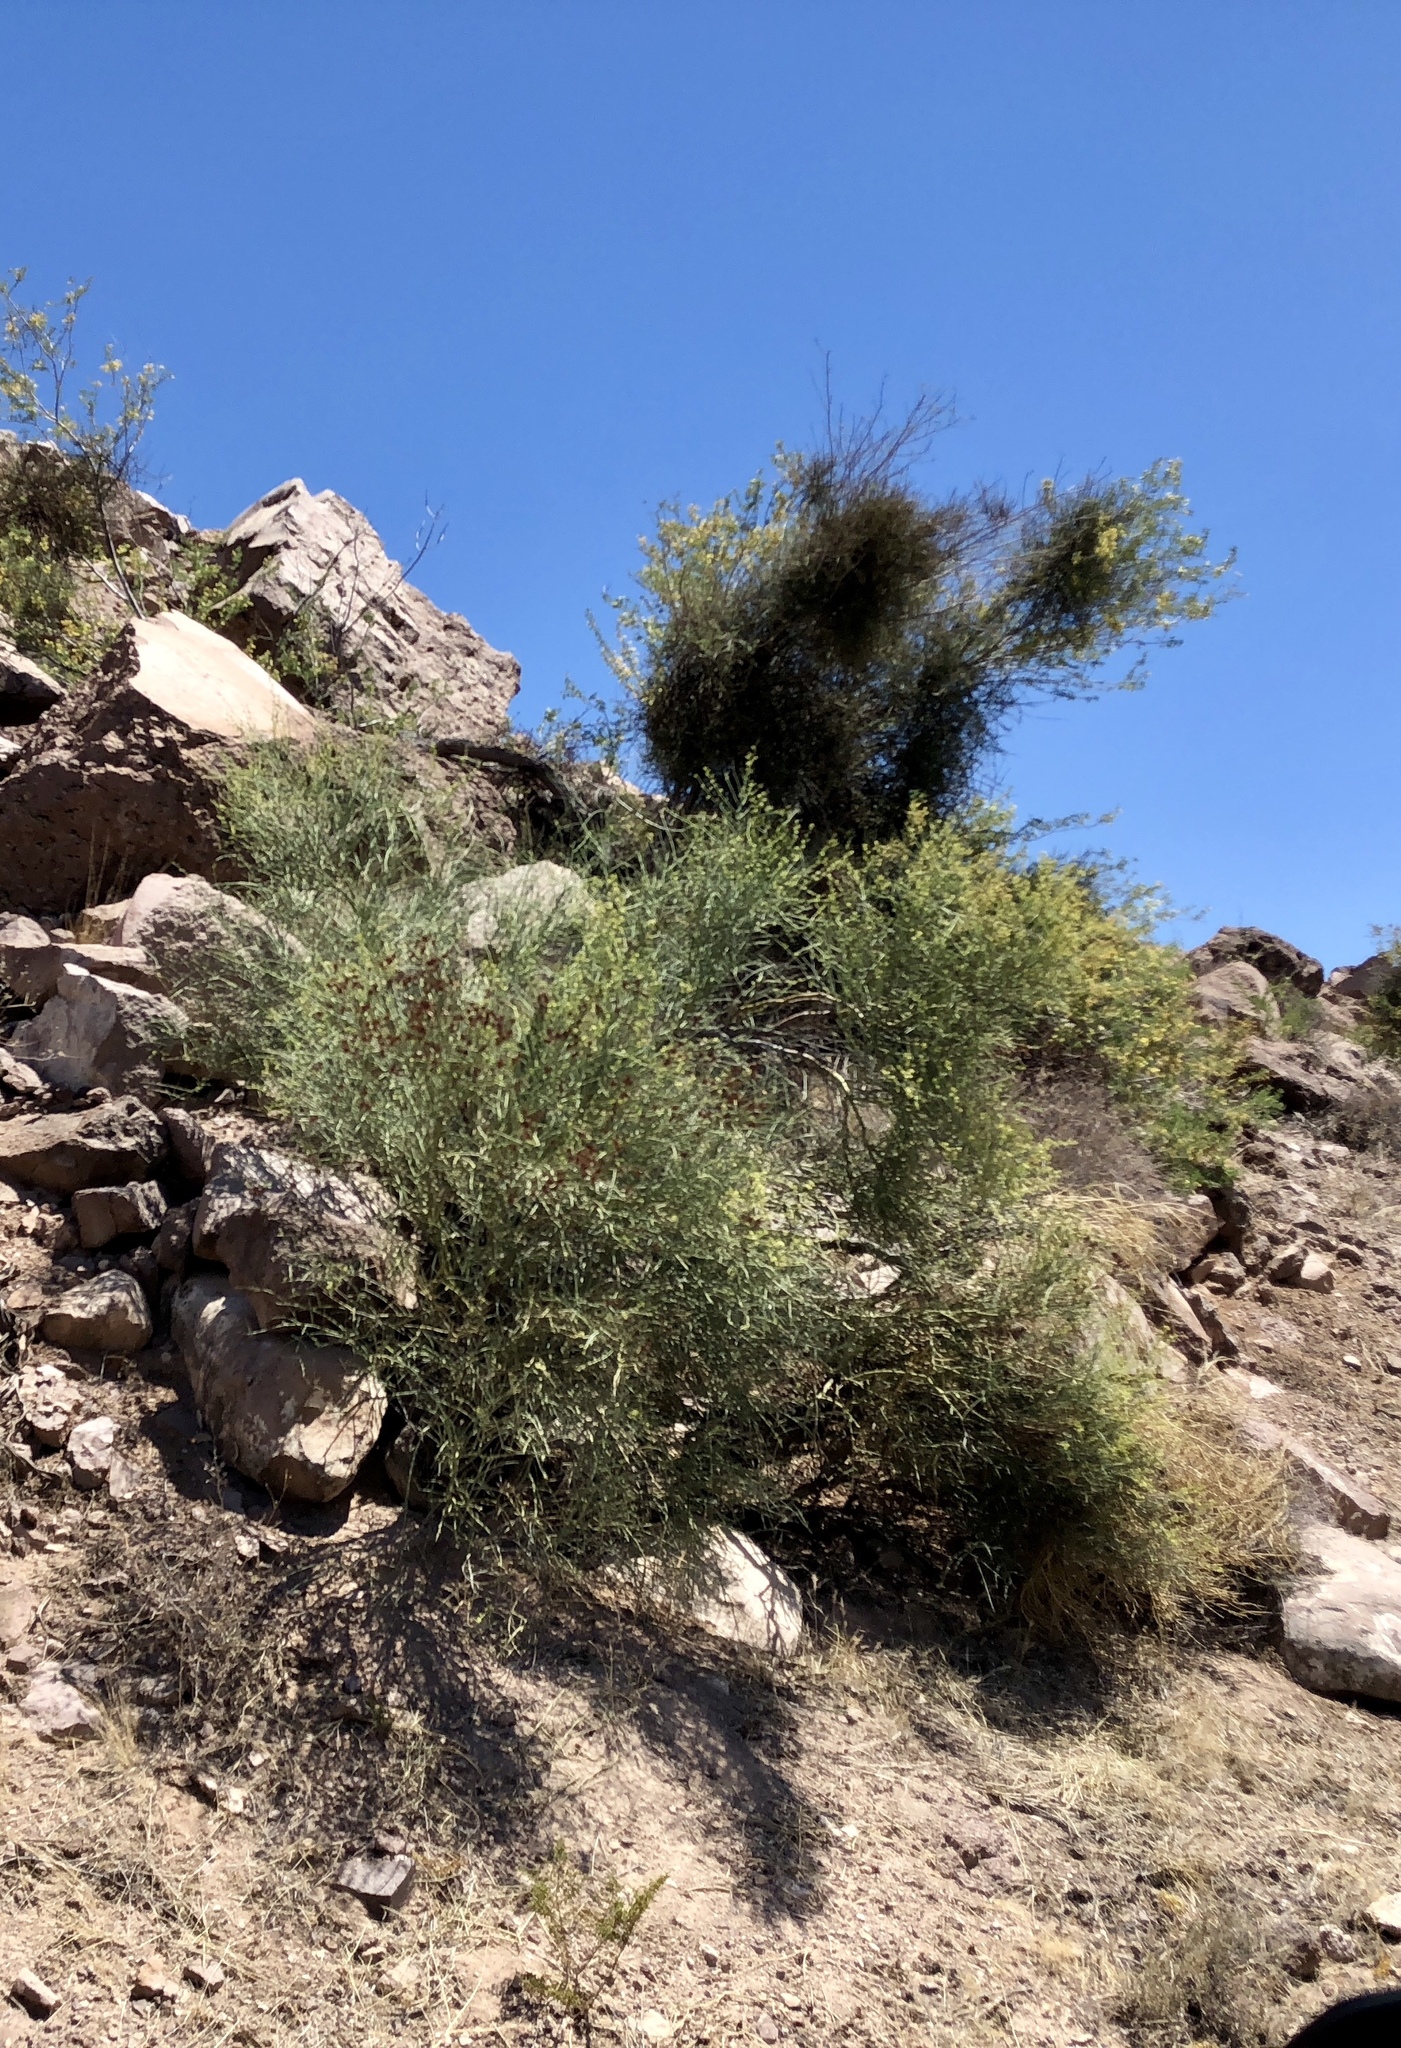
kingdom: Plantae
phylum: Tracheophyta
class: Magnoliopsida
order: Celastrales
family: Celastraceae
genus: Canotia
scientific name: Canotia holacantha
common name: Crucifixion thorns
